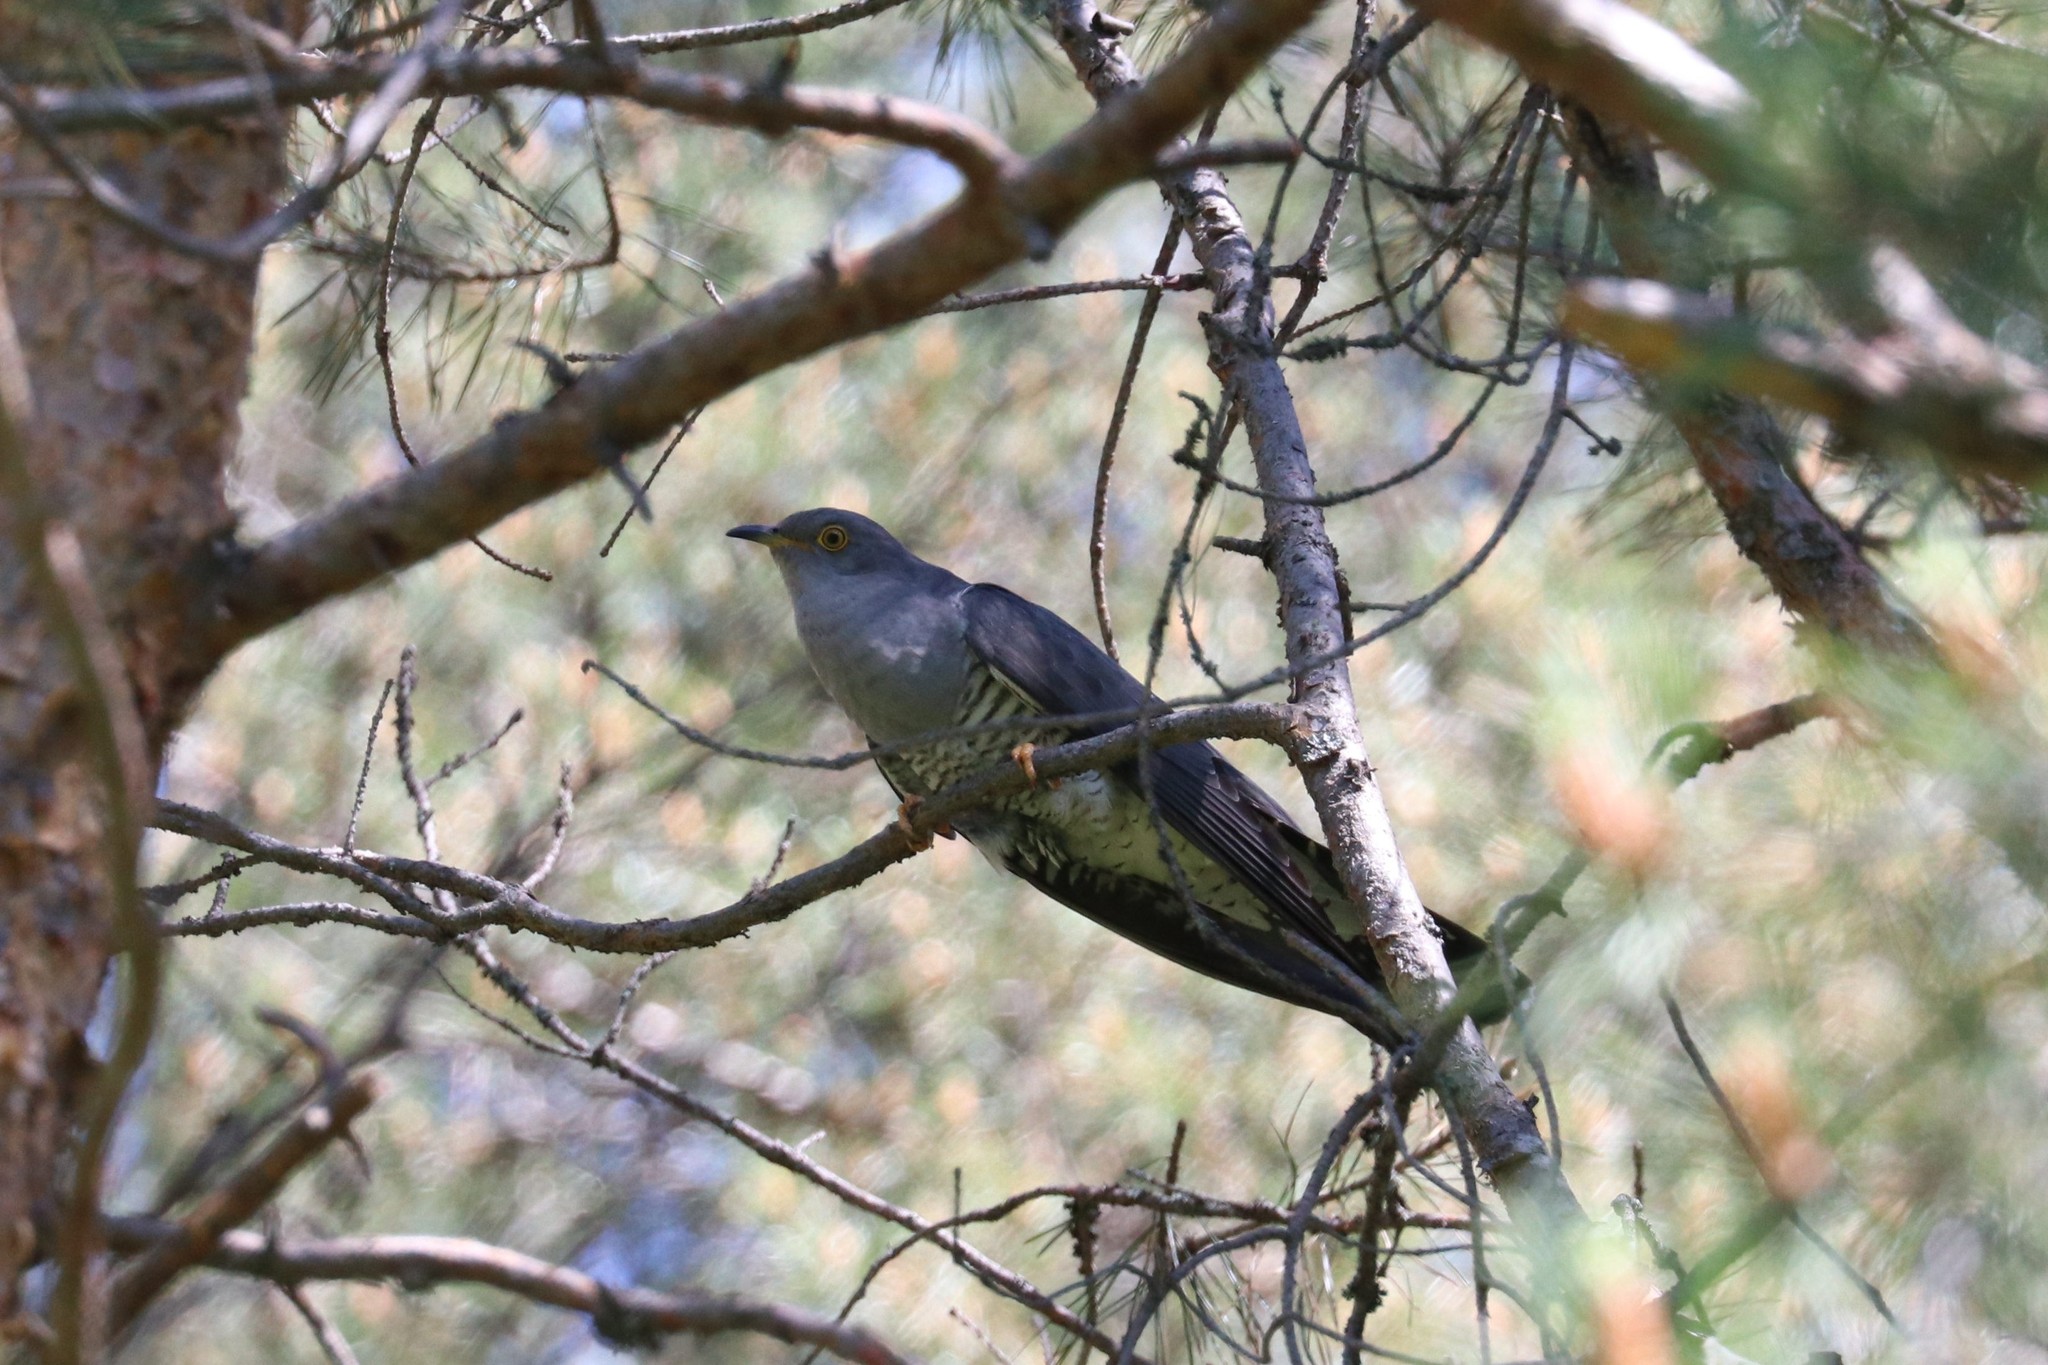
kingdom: Animalia
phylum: Chordata
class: Aves
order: Cuculiformes
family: Cuculidae
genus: Cuculus
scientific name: Cuculus canorus
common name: Common cuckoo
